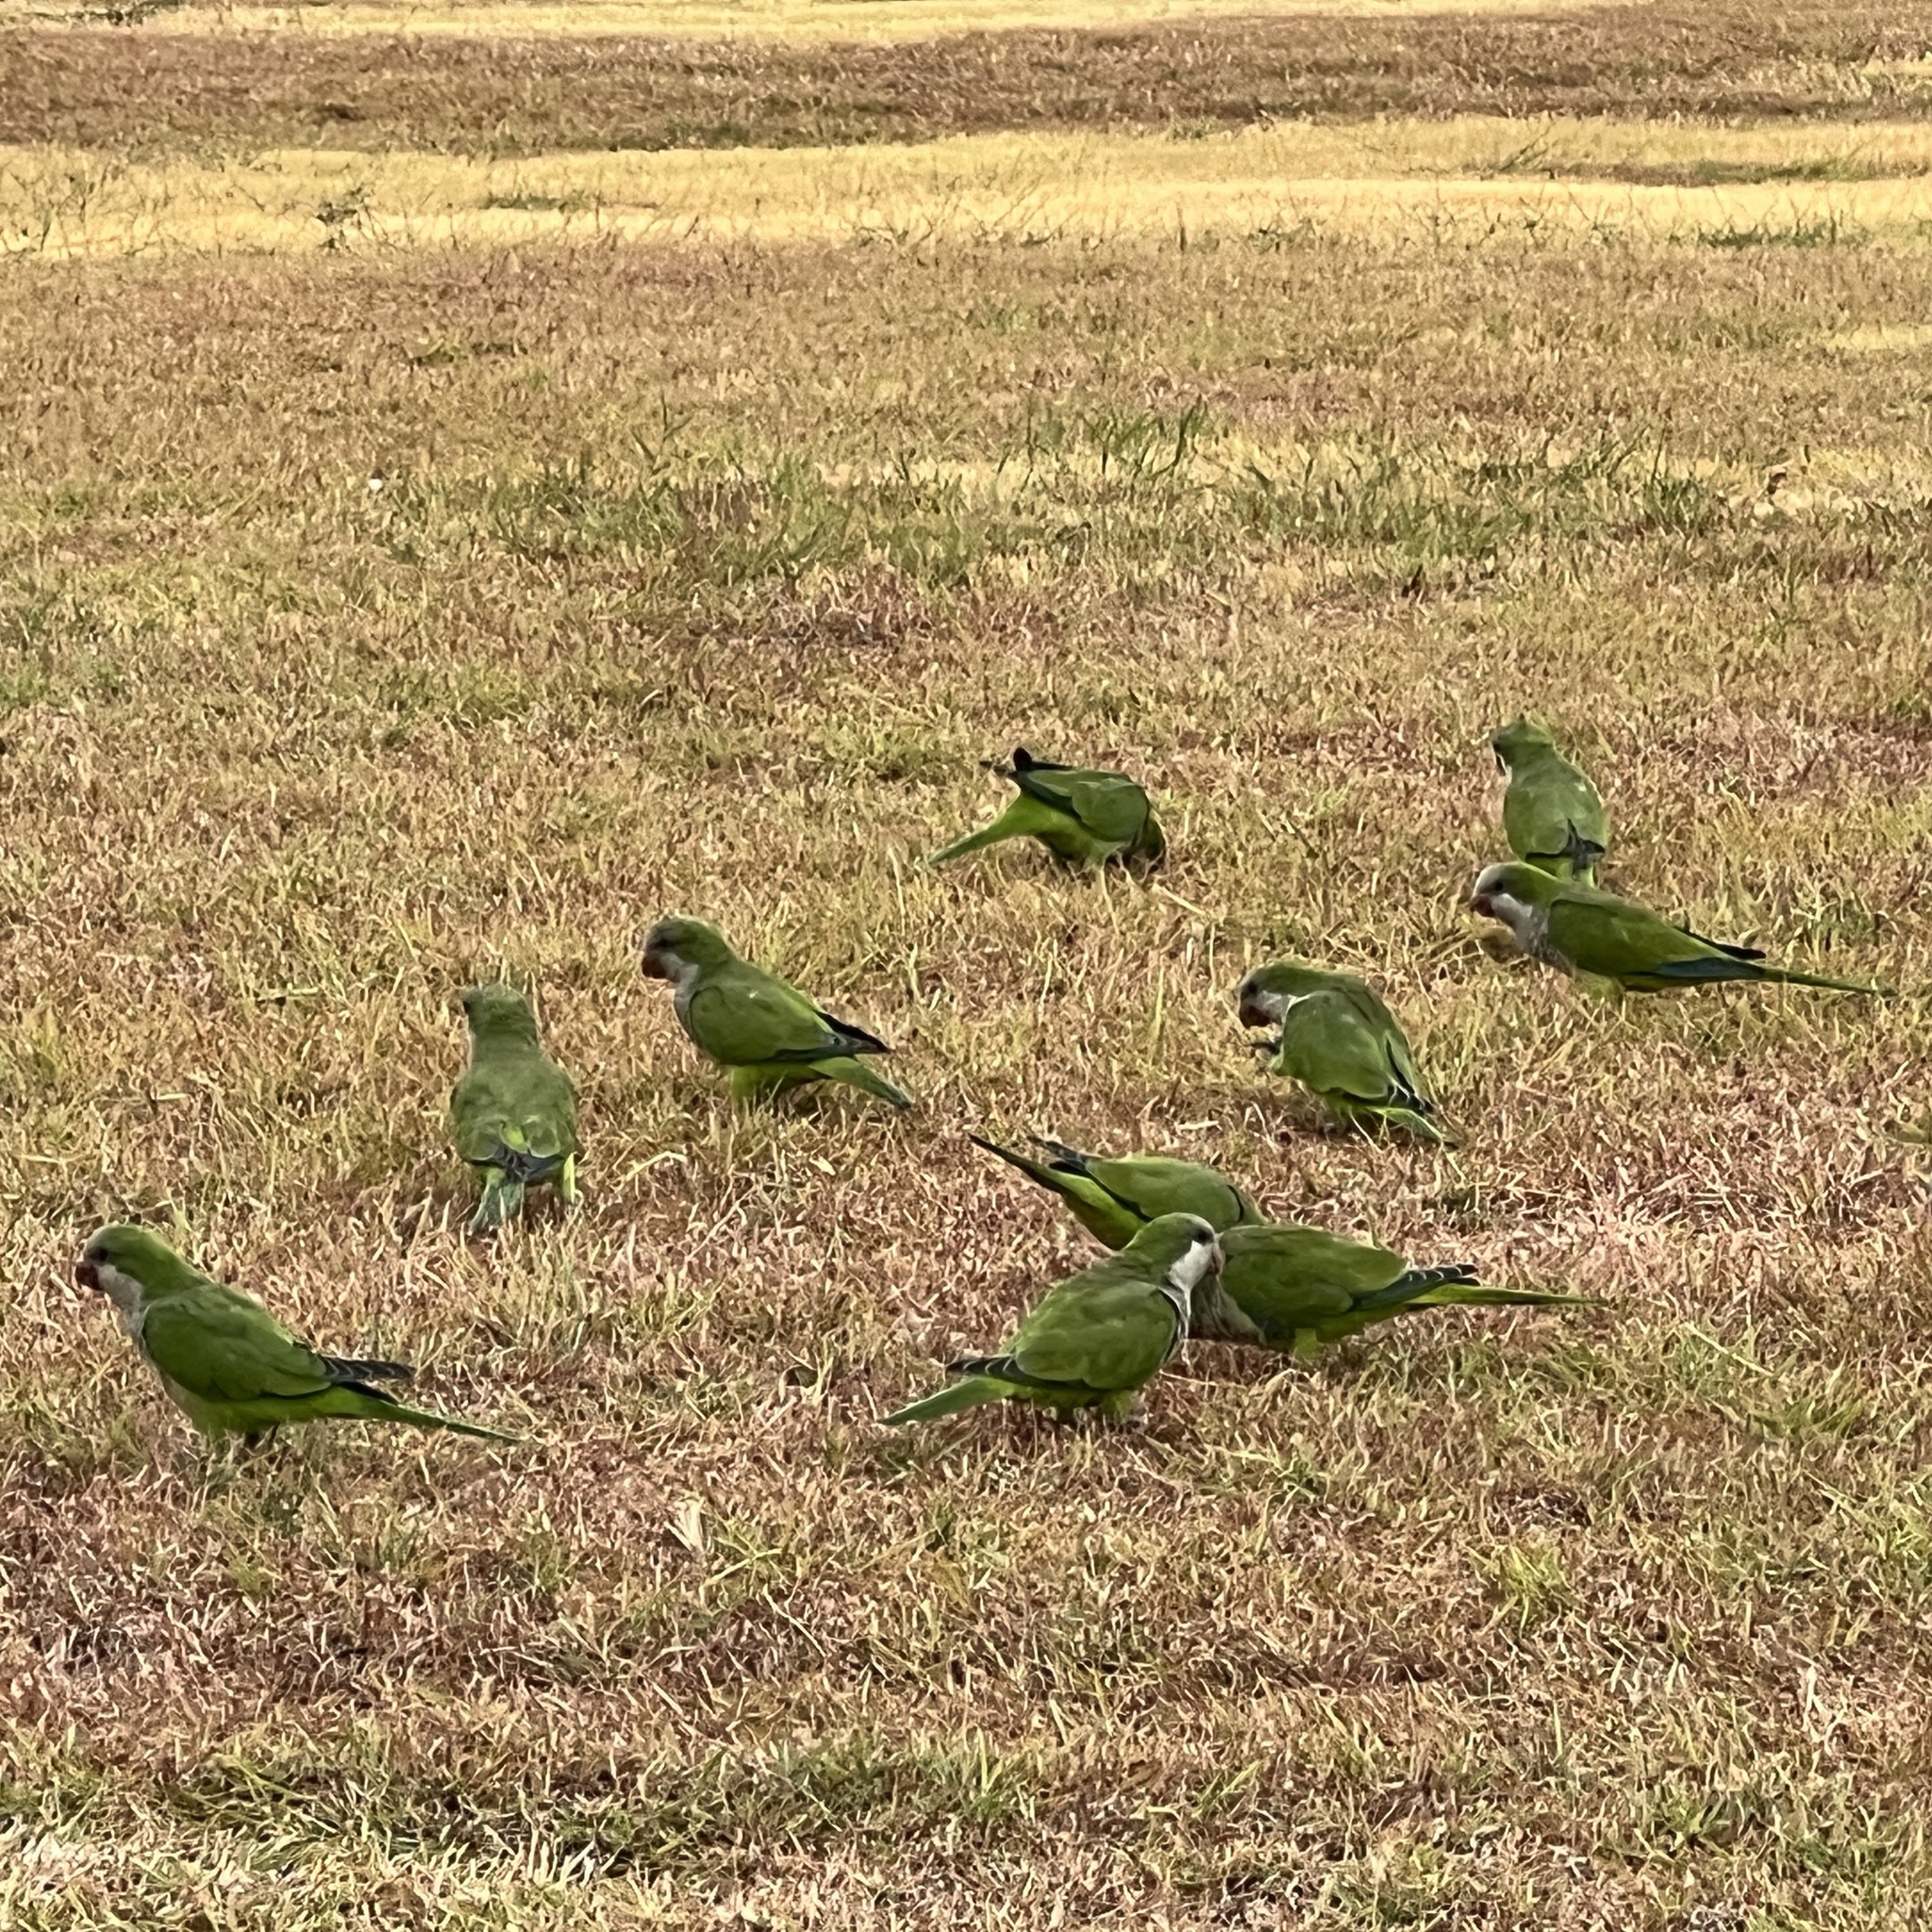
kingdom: Animalia
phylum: Chordata
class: Aves
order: Psittaciformes
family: Psittacidae
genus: Myiopsitta
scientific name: Myiopsitta monachus
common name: Monk parakeet
